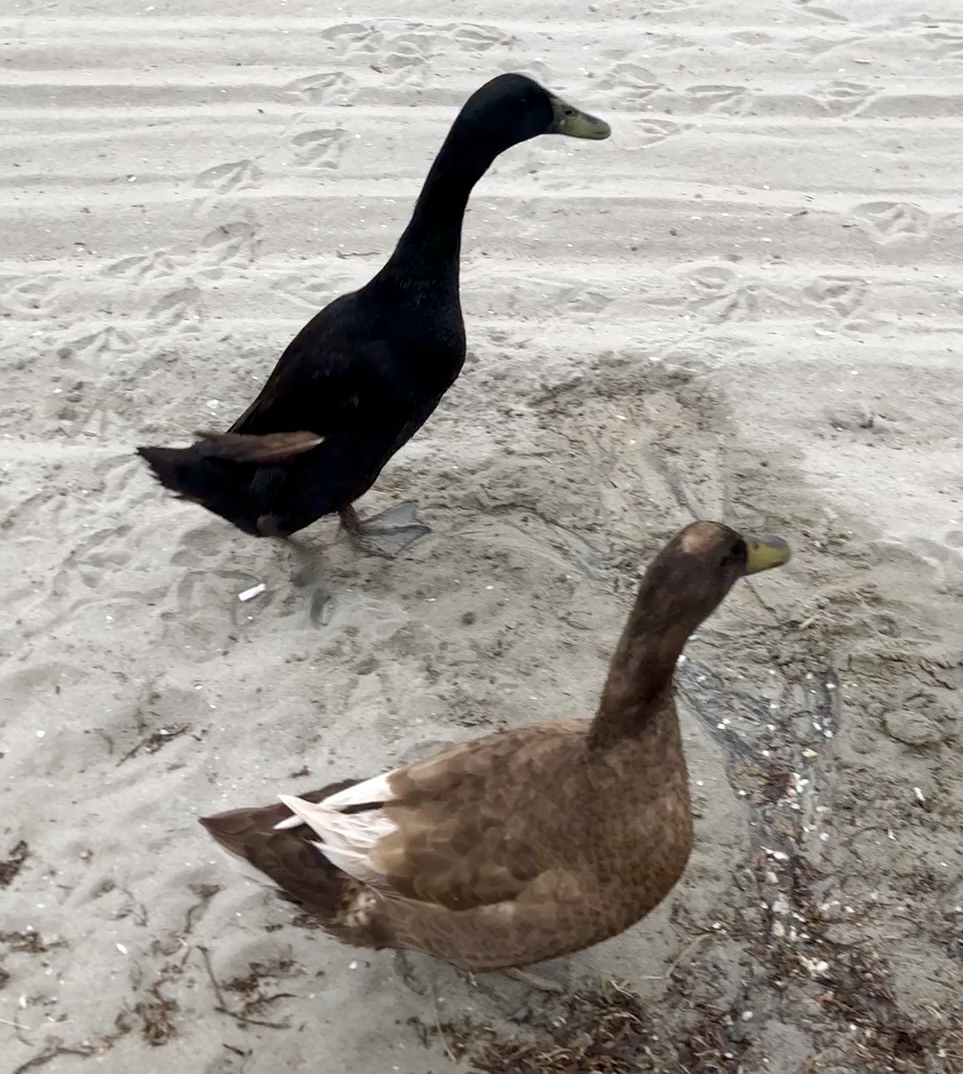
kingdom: Animalia
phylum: Chordata
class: Aves
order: Anseriformes
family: Anatidae
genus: Anas
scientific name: Anas platyrhynchos
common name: Mallard
